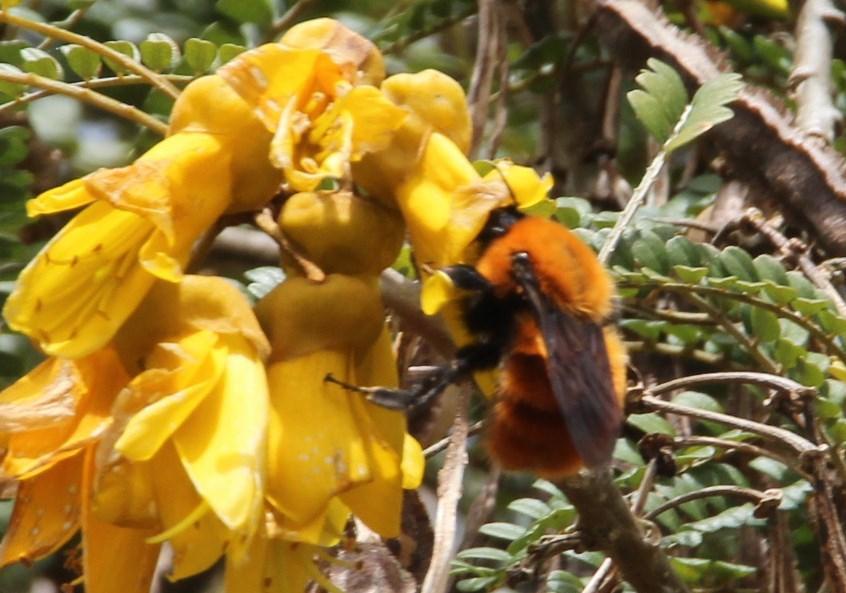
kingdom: Animalia
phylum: Arthropoda
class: Insecta
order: Hymenoptera
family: Apidae
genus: Bombus
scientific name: Bombus dahlbomii
